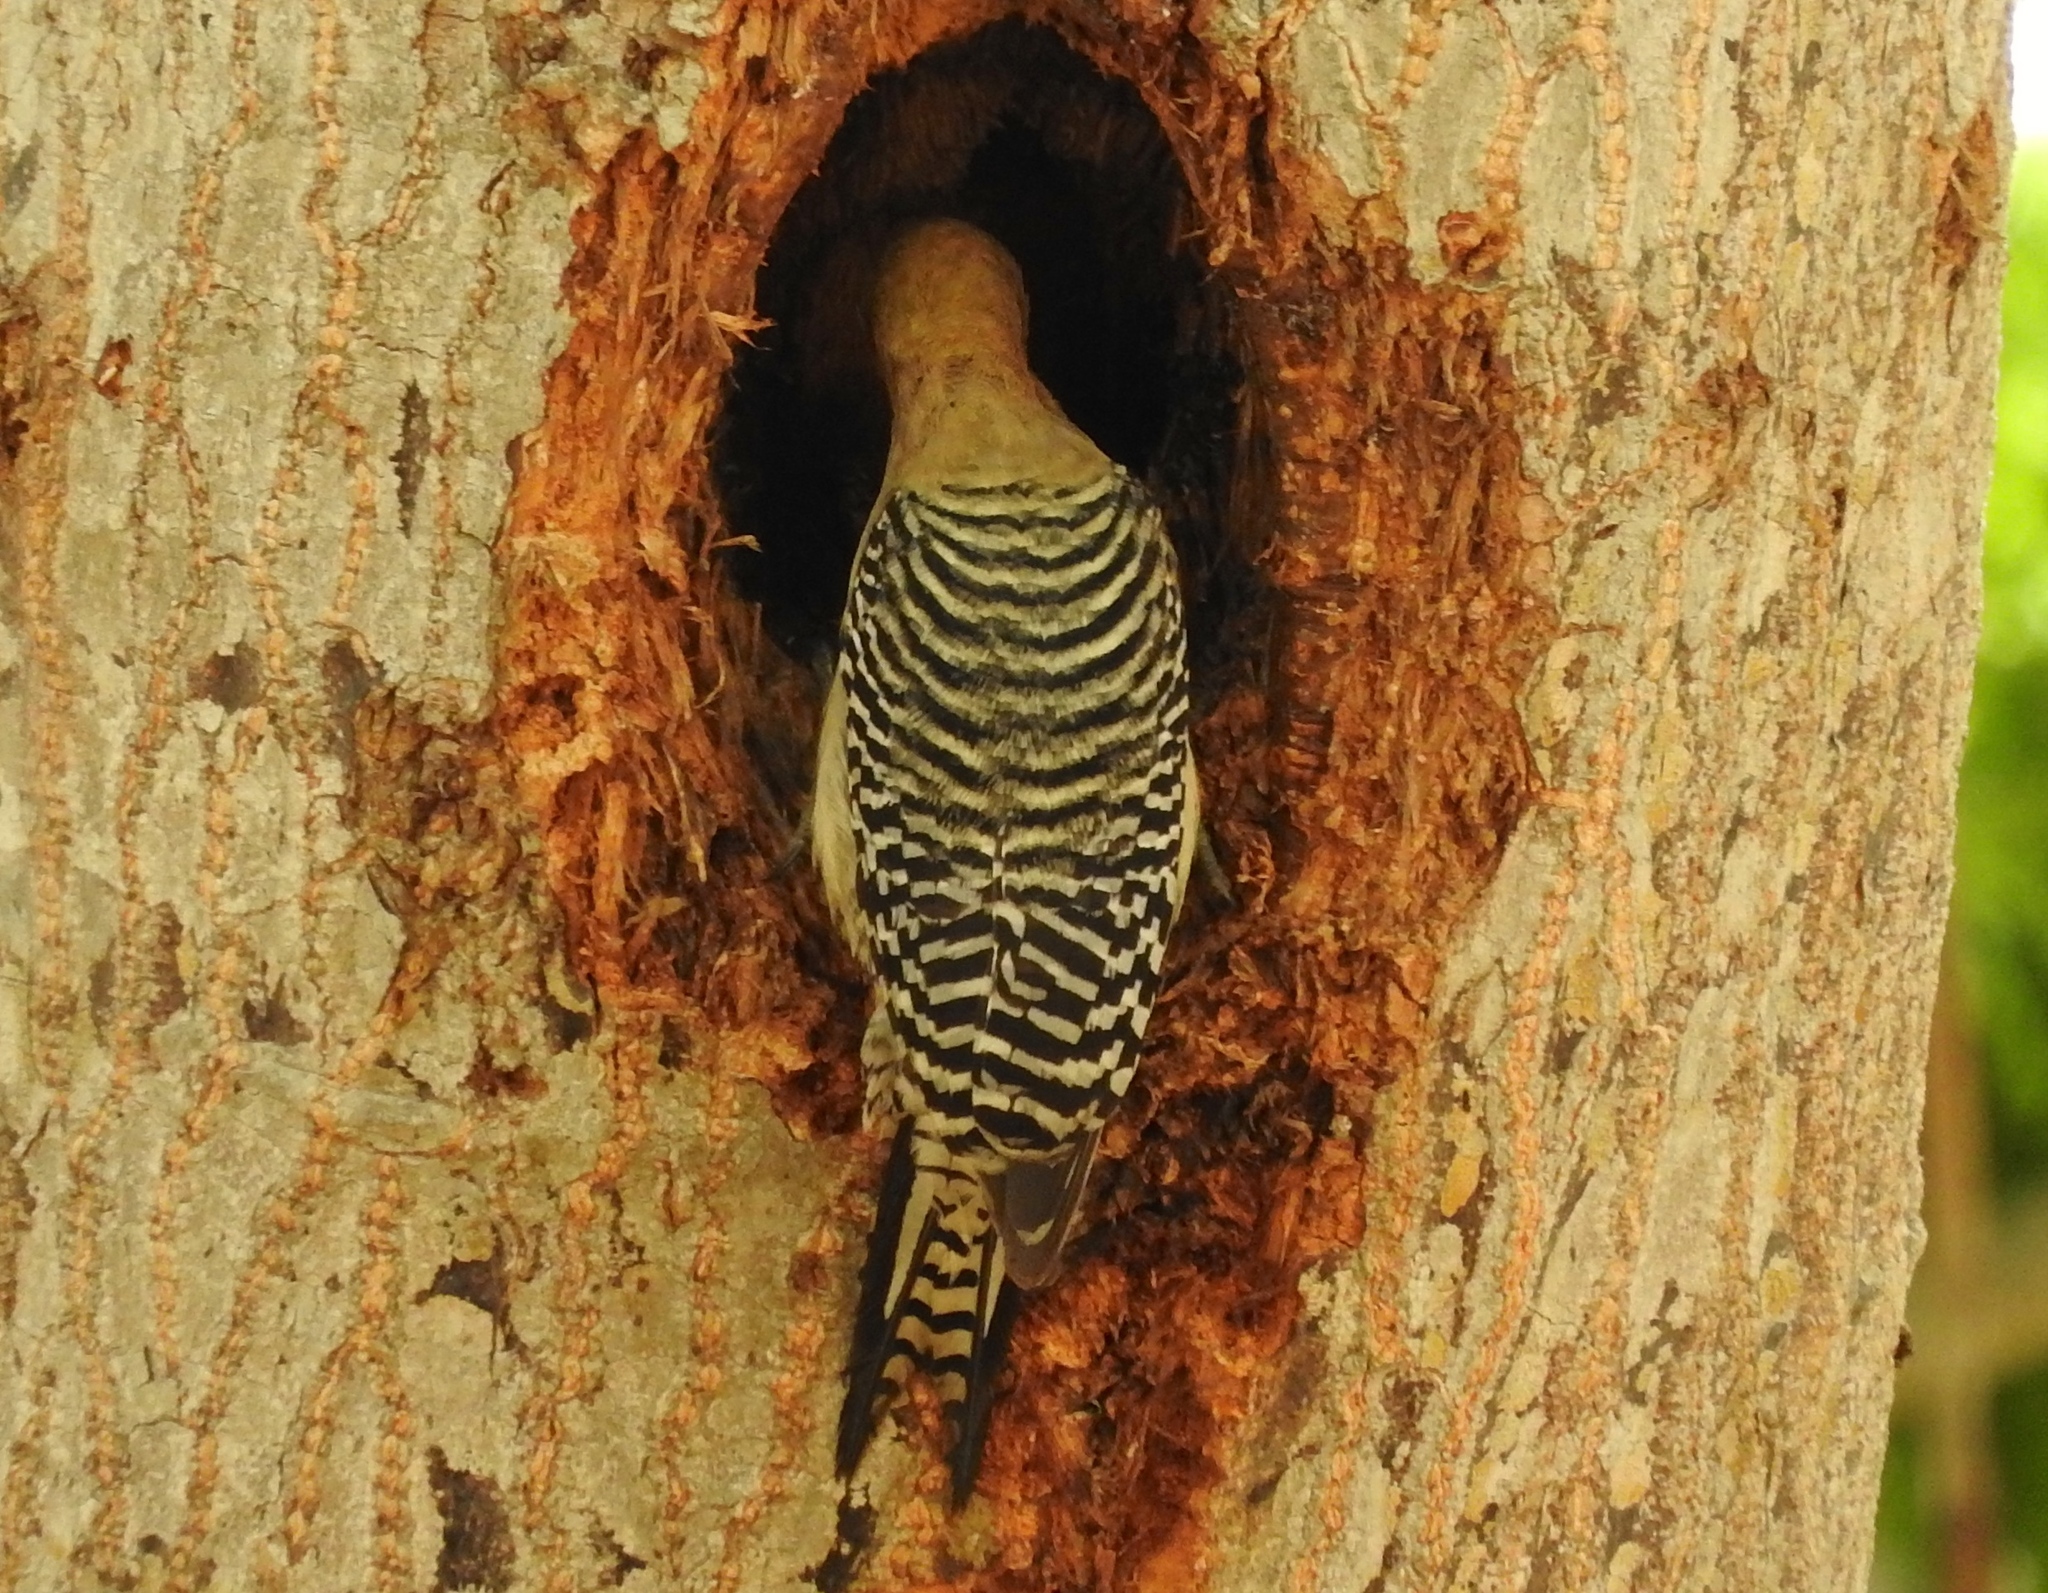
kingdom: Animalia
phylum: Chordata
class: Aves
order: Piciformes
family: Picidae
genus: Melanerpes
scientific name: Melanerpes uropygialis
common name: Gila woodpecker
